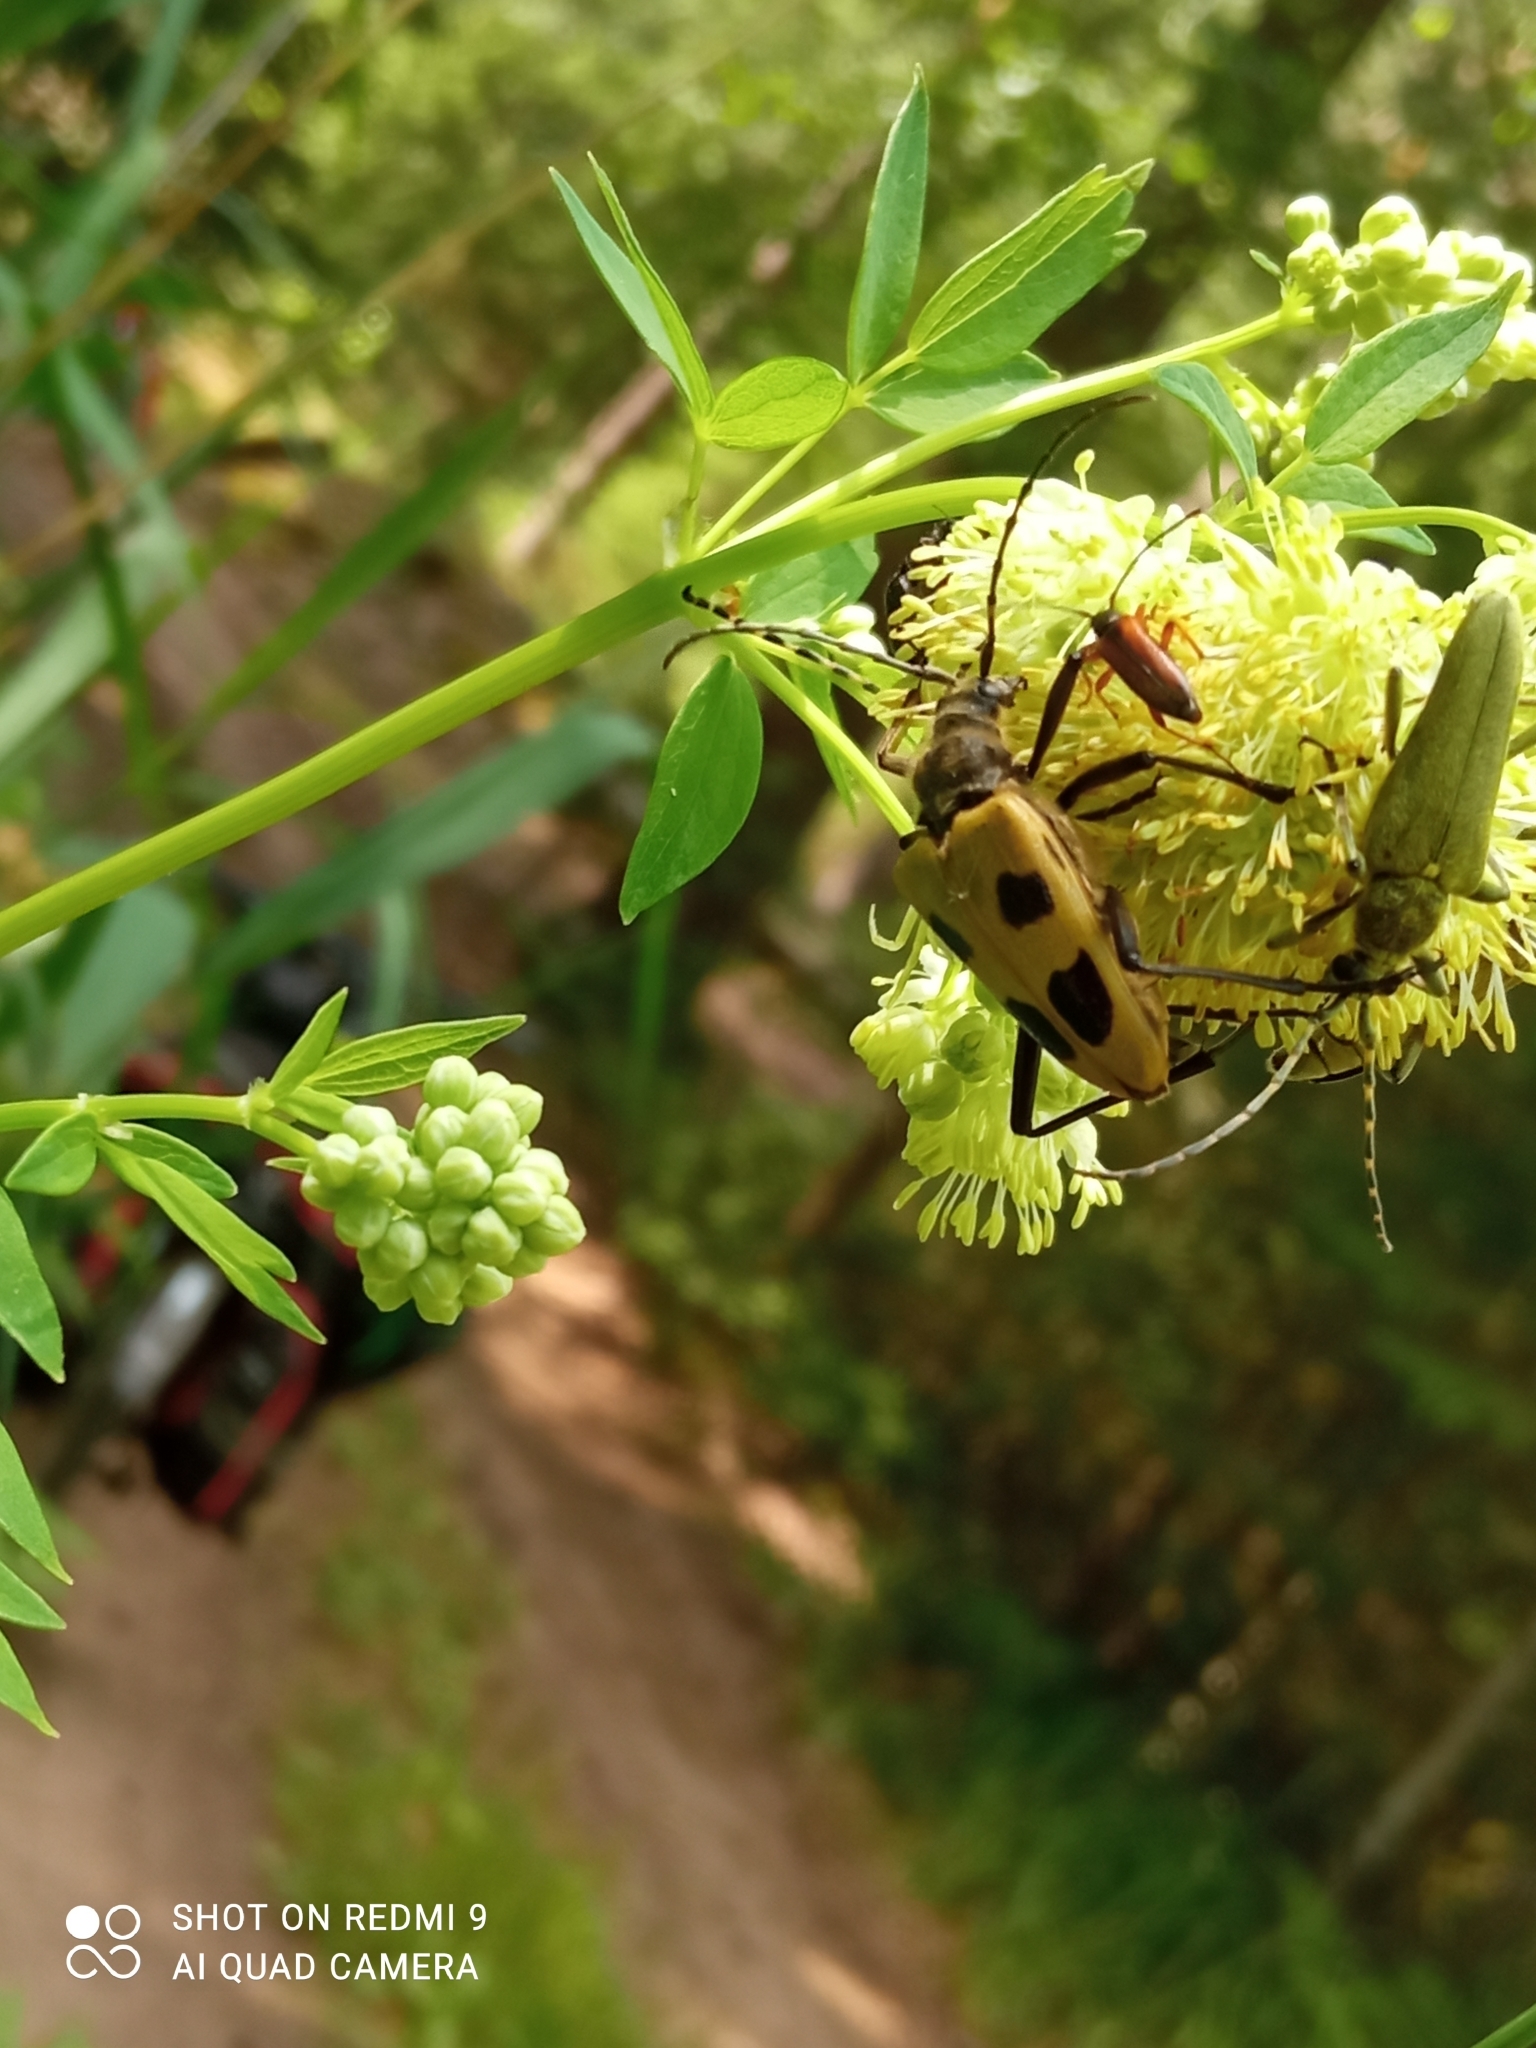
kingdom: Animalia
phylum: Arthropoda
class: Insecta
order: Coleoptera
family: Cerambycidae
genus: Pachyta
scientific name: Pachyta quadrimaculata
